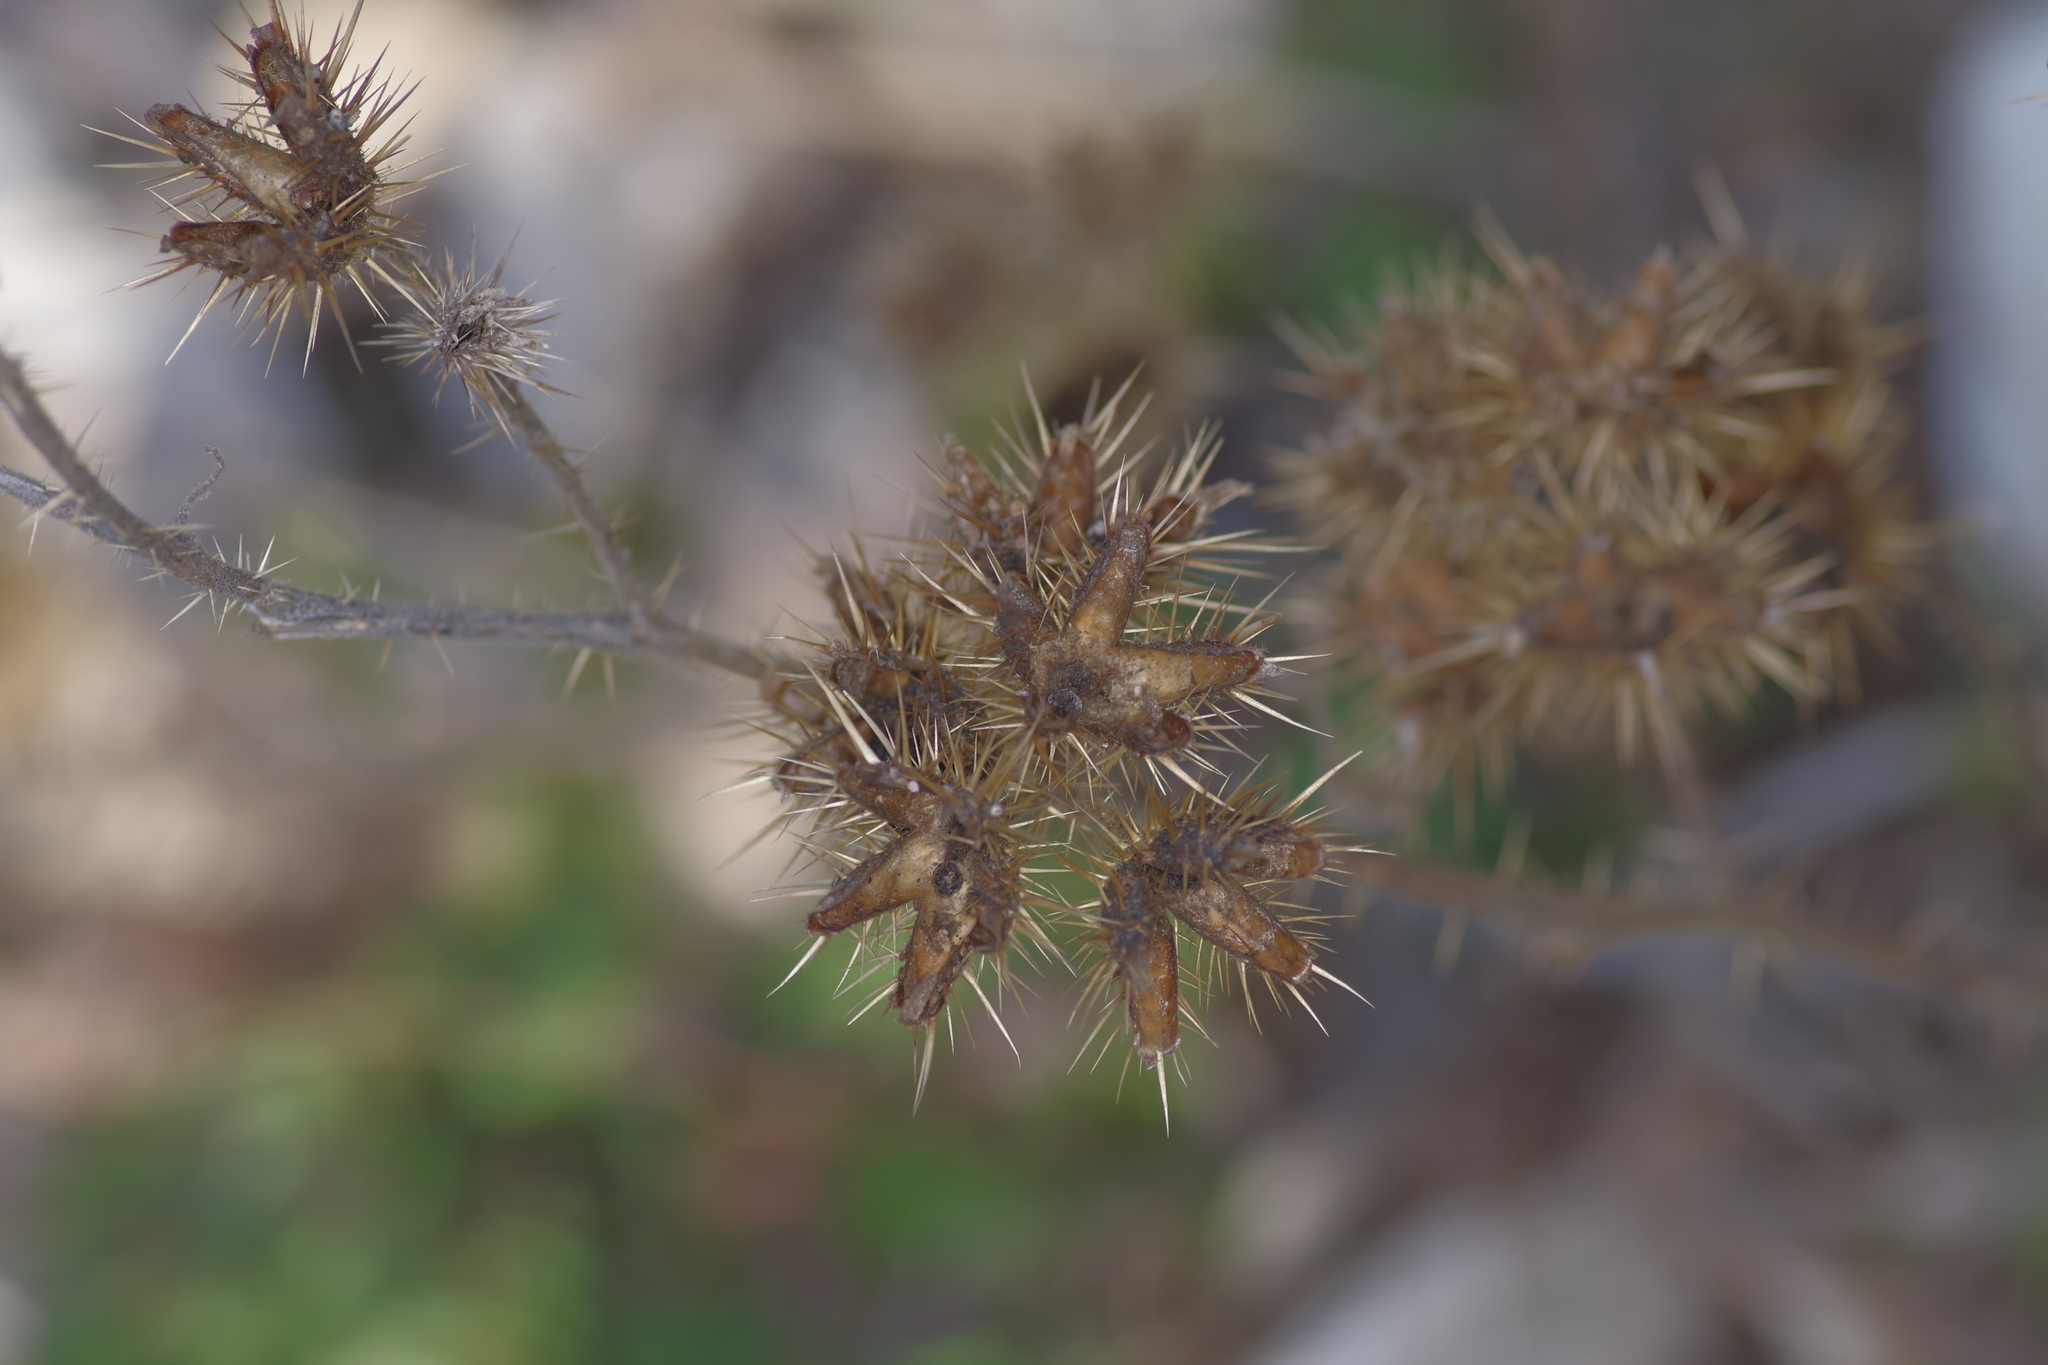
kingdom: Plantae
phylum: Tracheophyta
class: Magnoliopsida
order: Solanales
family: Solanaceae
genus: Solanum
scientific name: Solanum angustifolium
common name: Buffalobur nightshade
